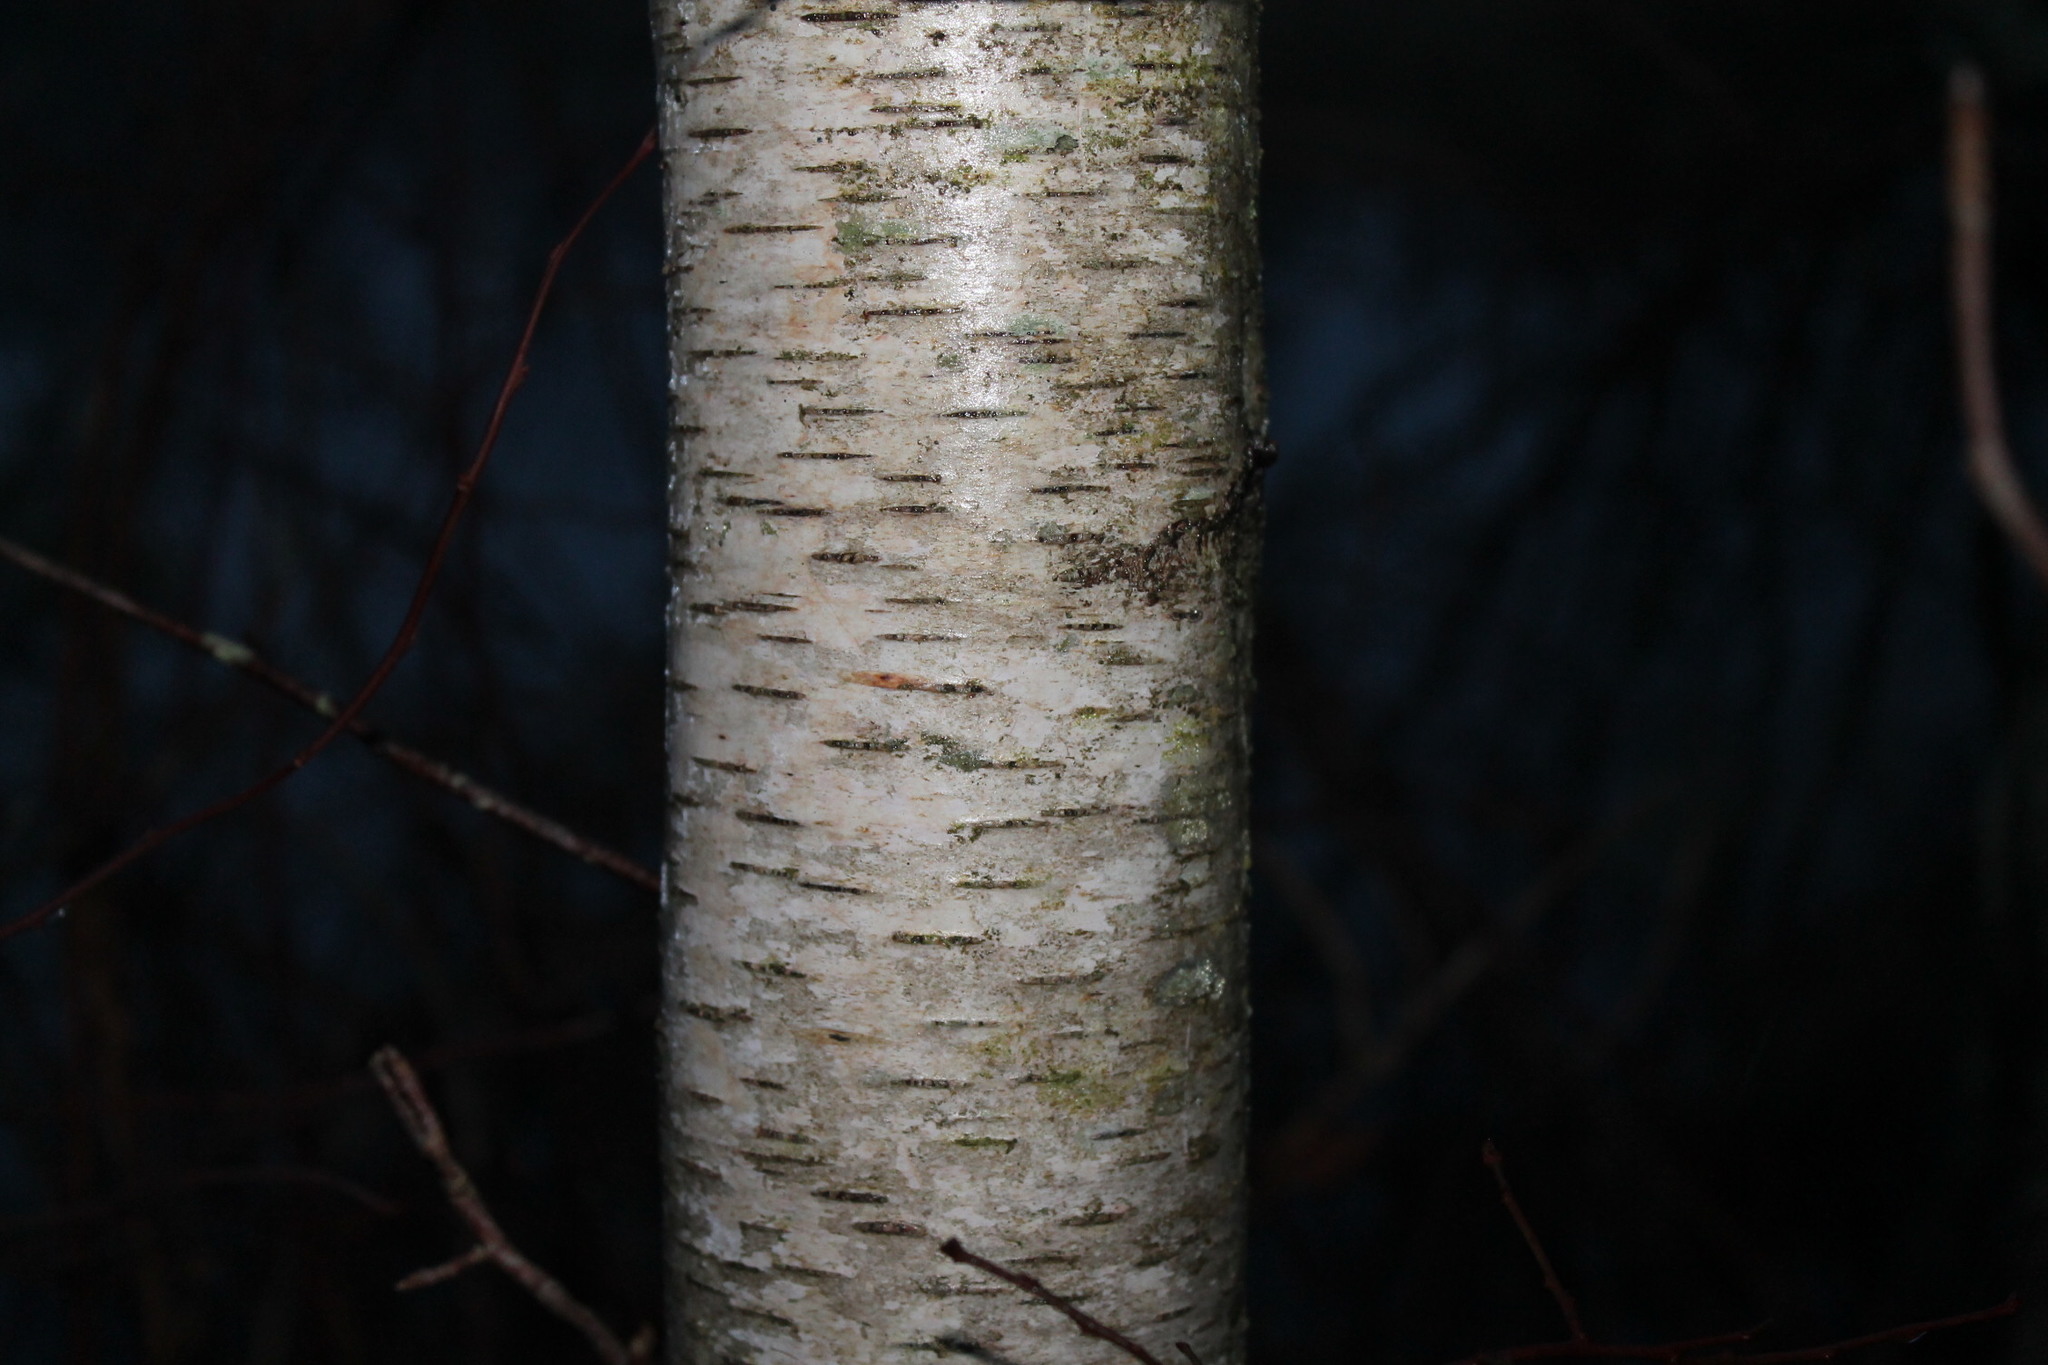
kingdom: Plantae
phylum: Tracheophyta
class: Magnoliopsida
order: Fagales
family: Betulaceae
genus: Betula
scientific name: Betula populifolia
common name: Fire birch
